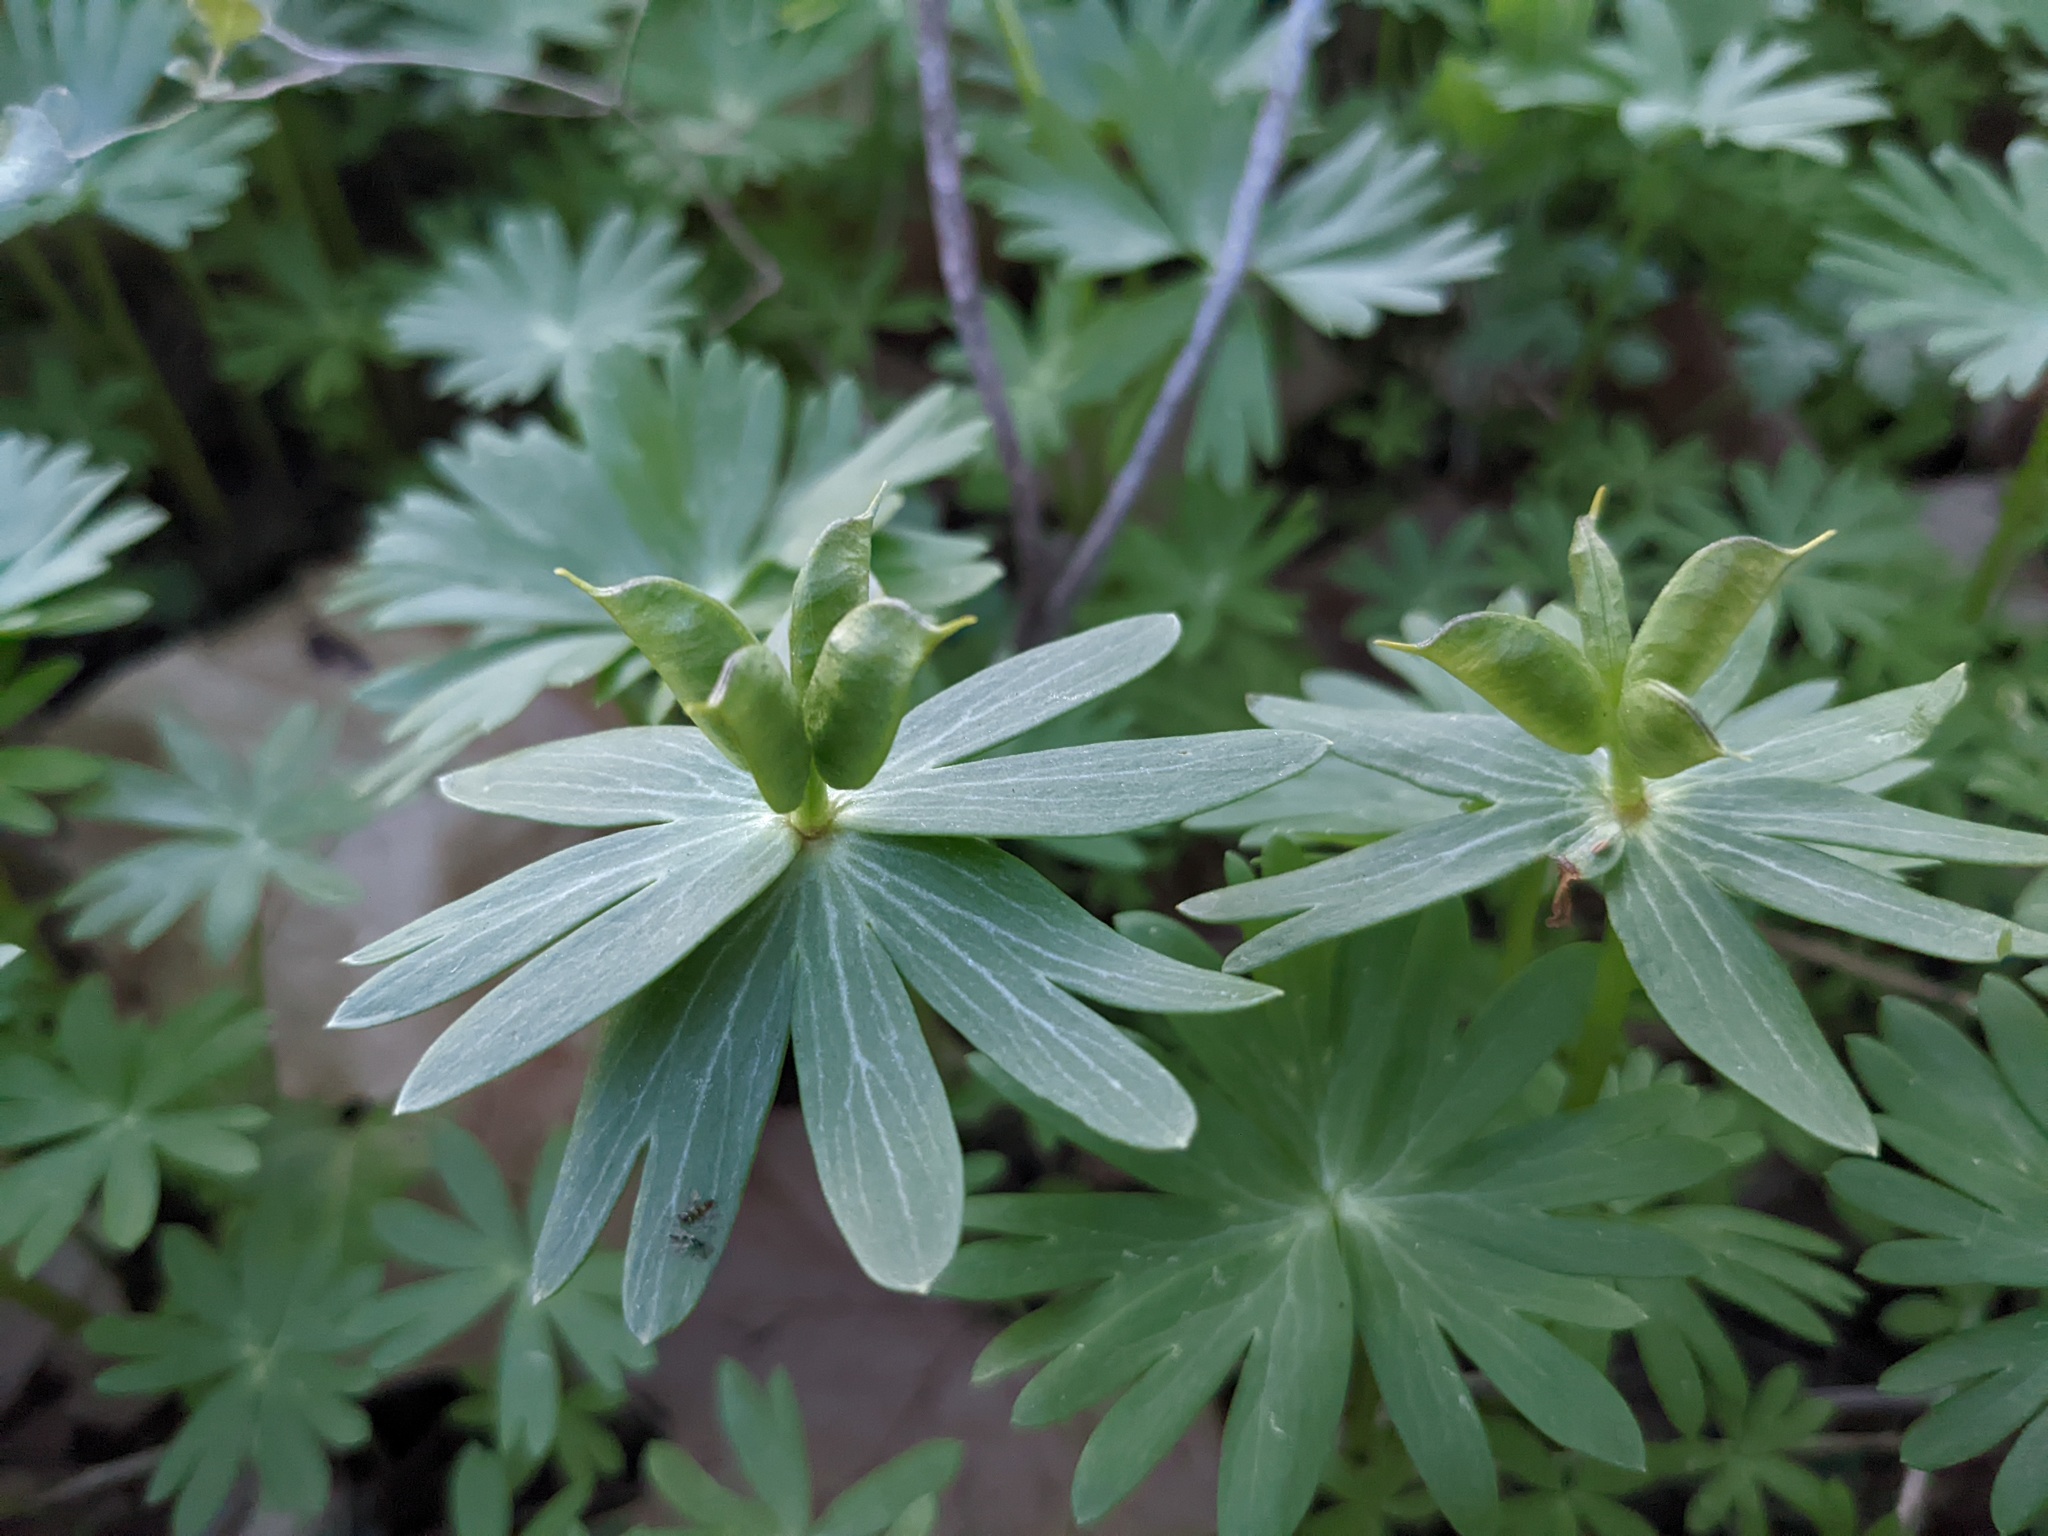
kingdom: Plantae
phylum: Tracheophyta
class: Magnoliopsida
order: Ranunculales
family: Ranunculaceae
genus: Eranthis
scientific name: Eranthis hyemalis
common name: Winter aconite
